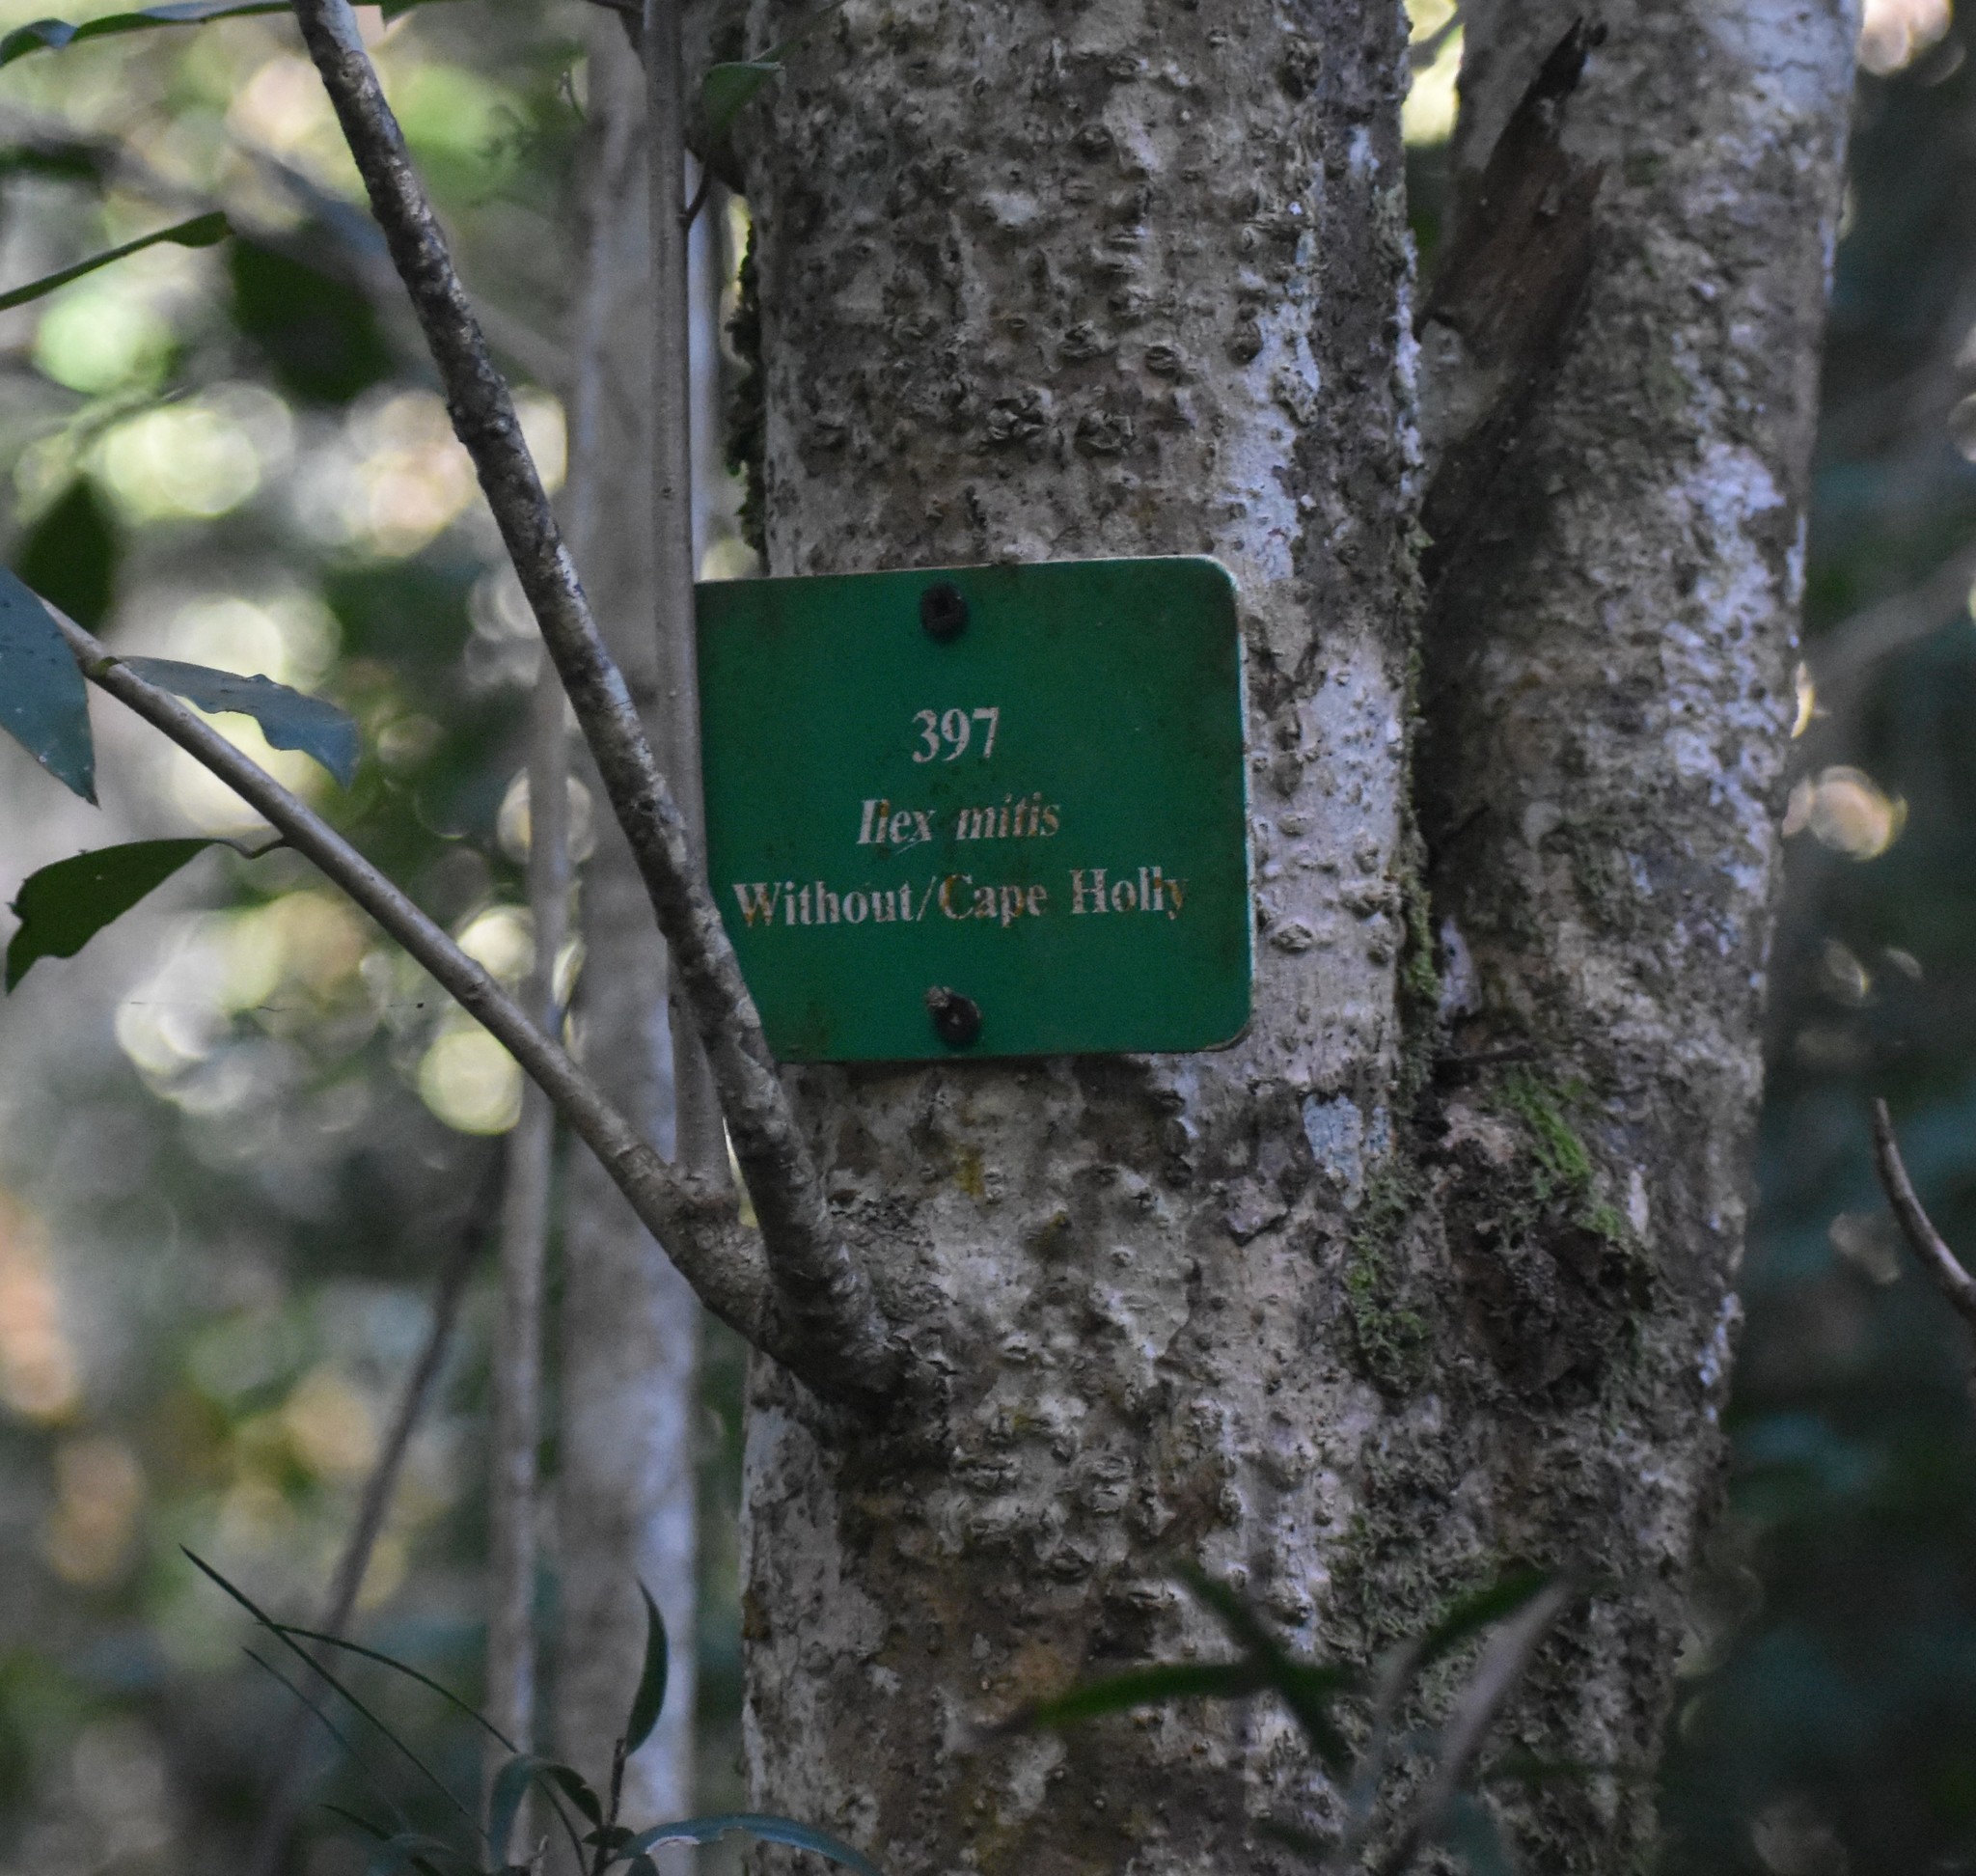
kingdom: Plantae
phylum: Tracheophyta
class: Magnoliopsida
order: Aquifoliales
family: Aquifoliaceae
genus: Ilex
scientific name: Ilex mitis
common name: African holly
